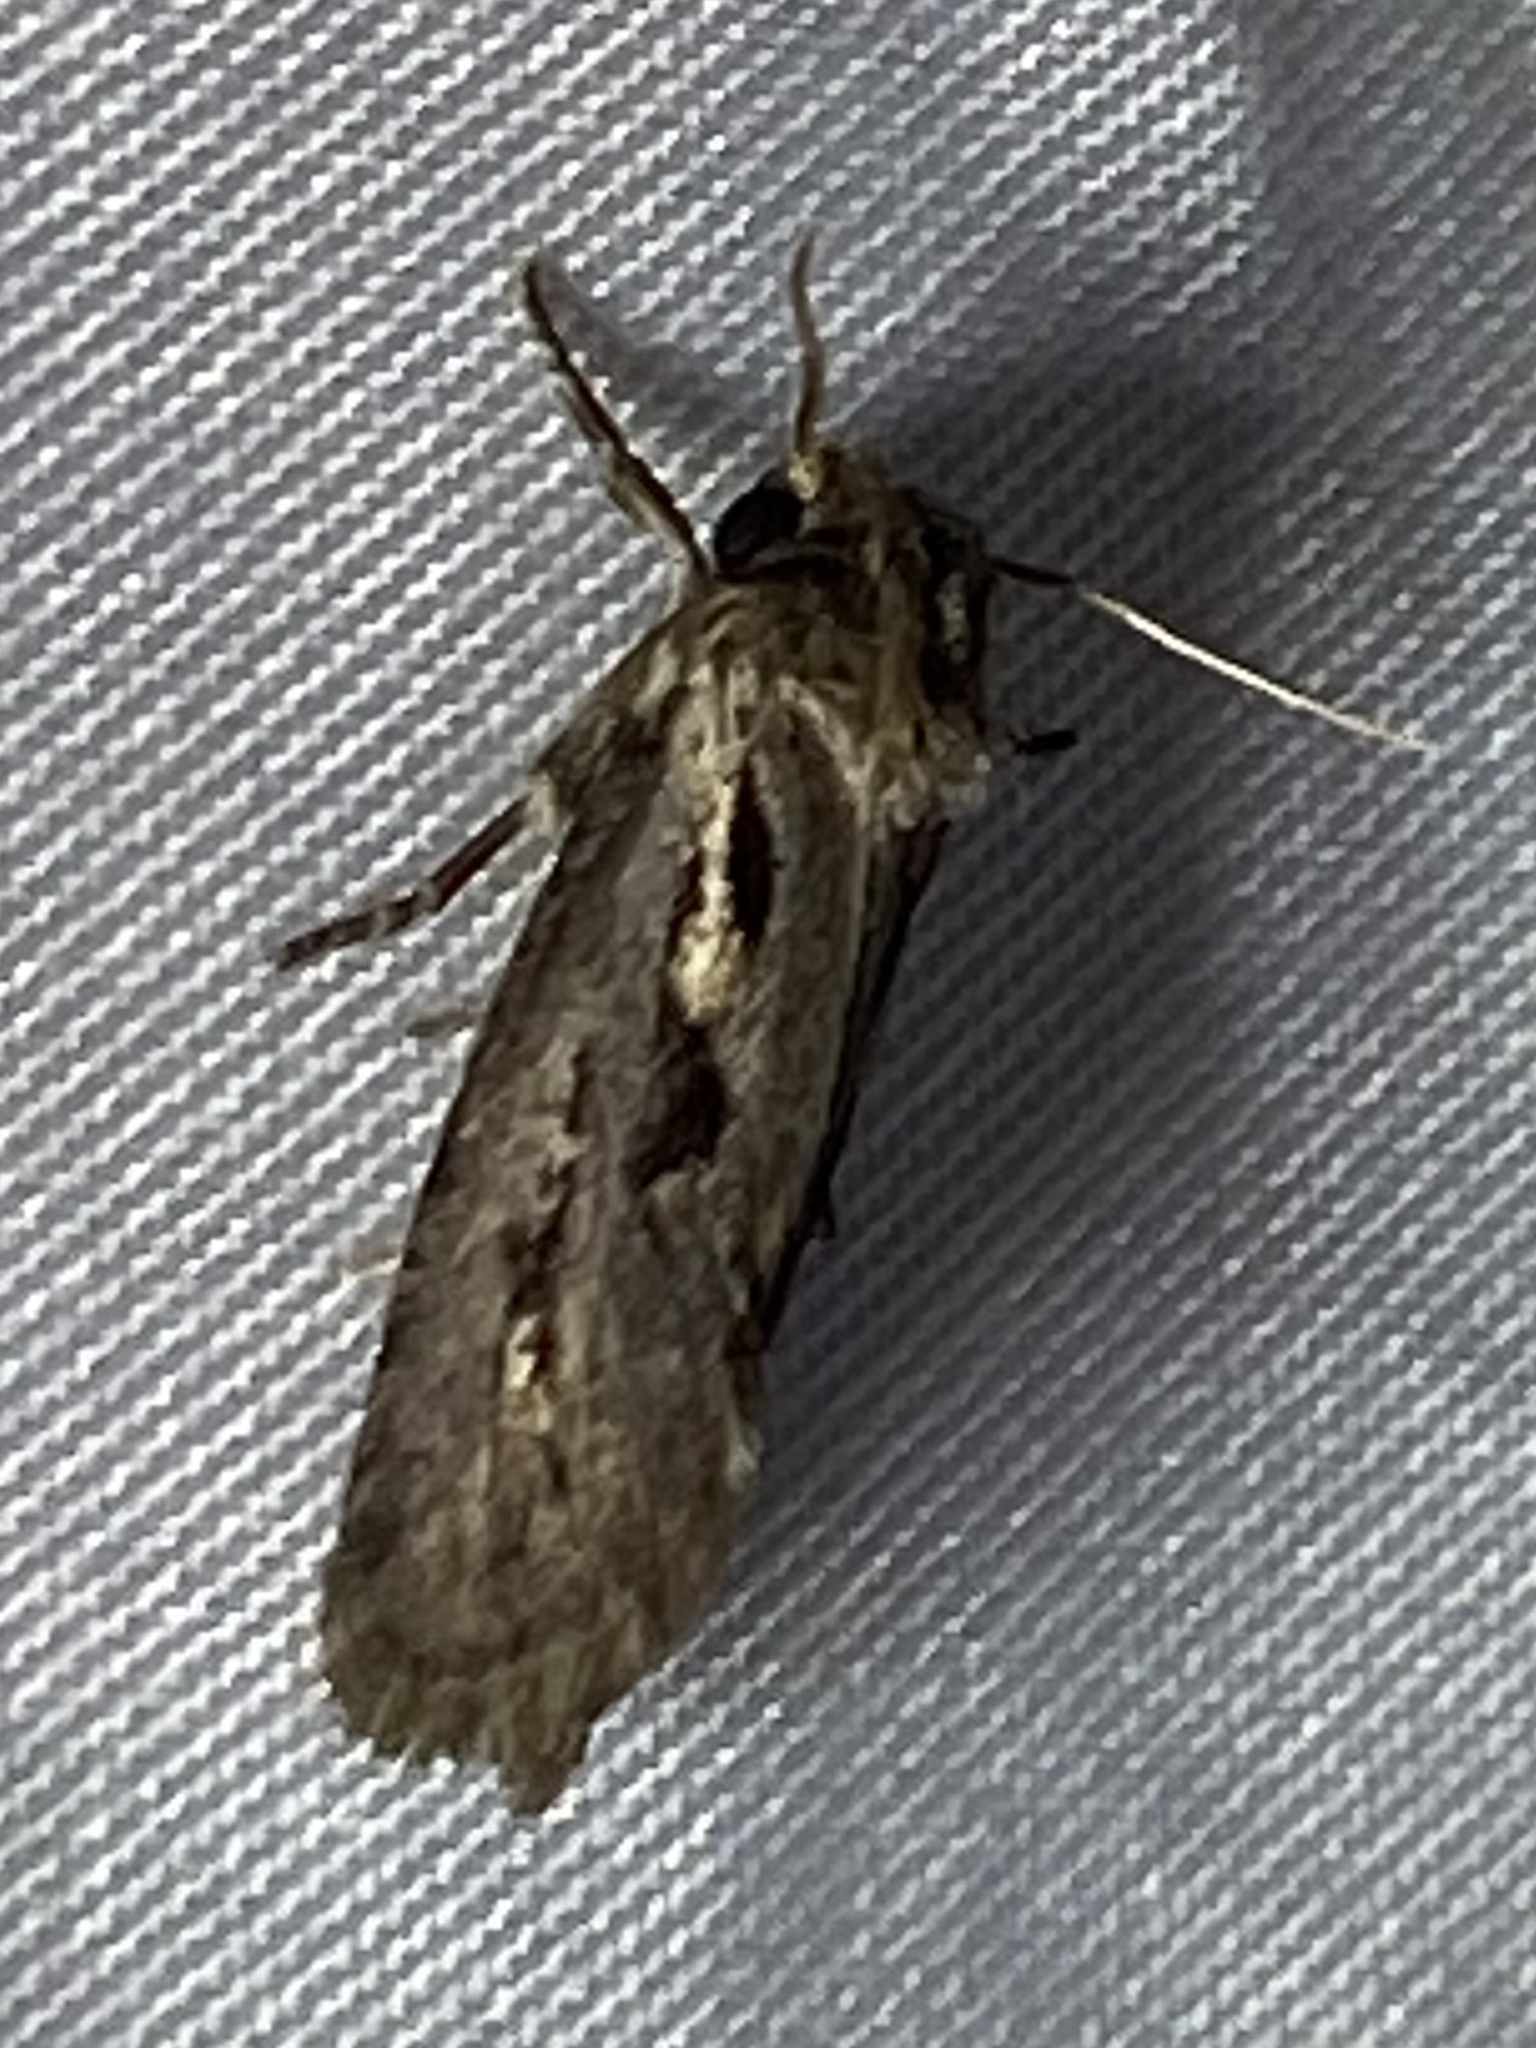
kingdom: Animalia
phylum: Arthropoda
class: Insecta
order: Lepidoptera
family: Tineidae
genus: Acrolophus
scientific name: Acrolophus popeanella
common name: Clemens' grass tubeworm moth
